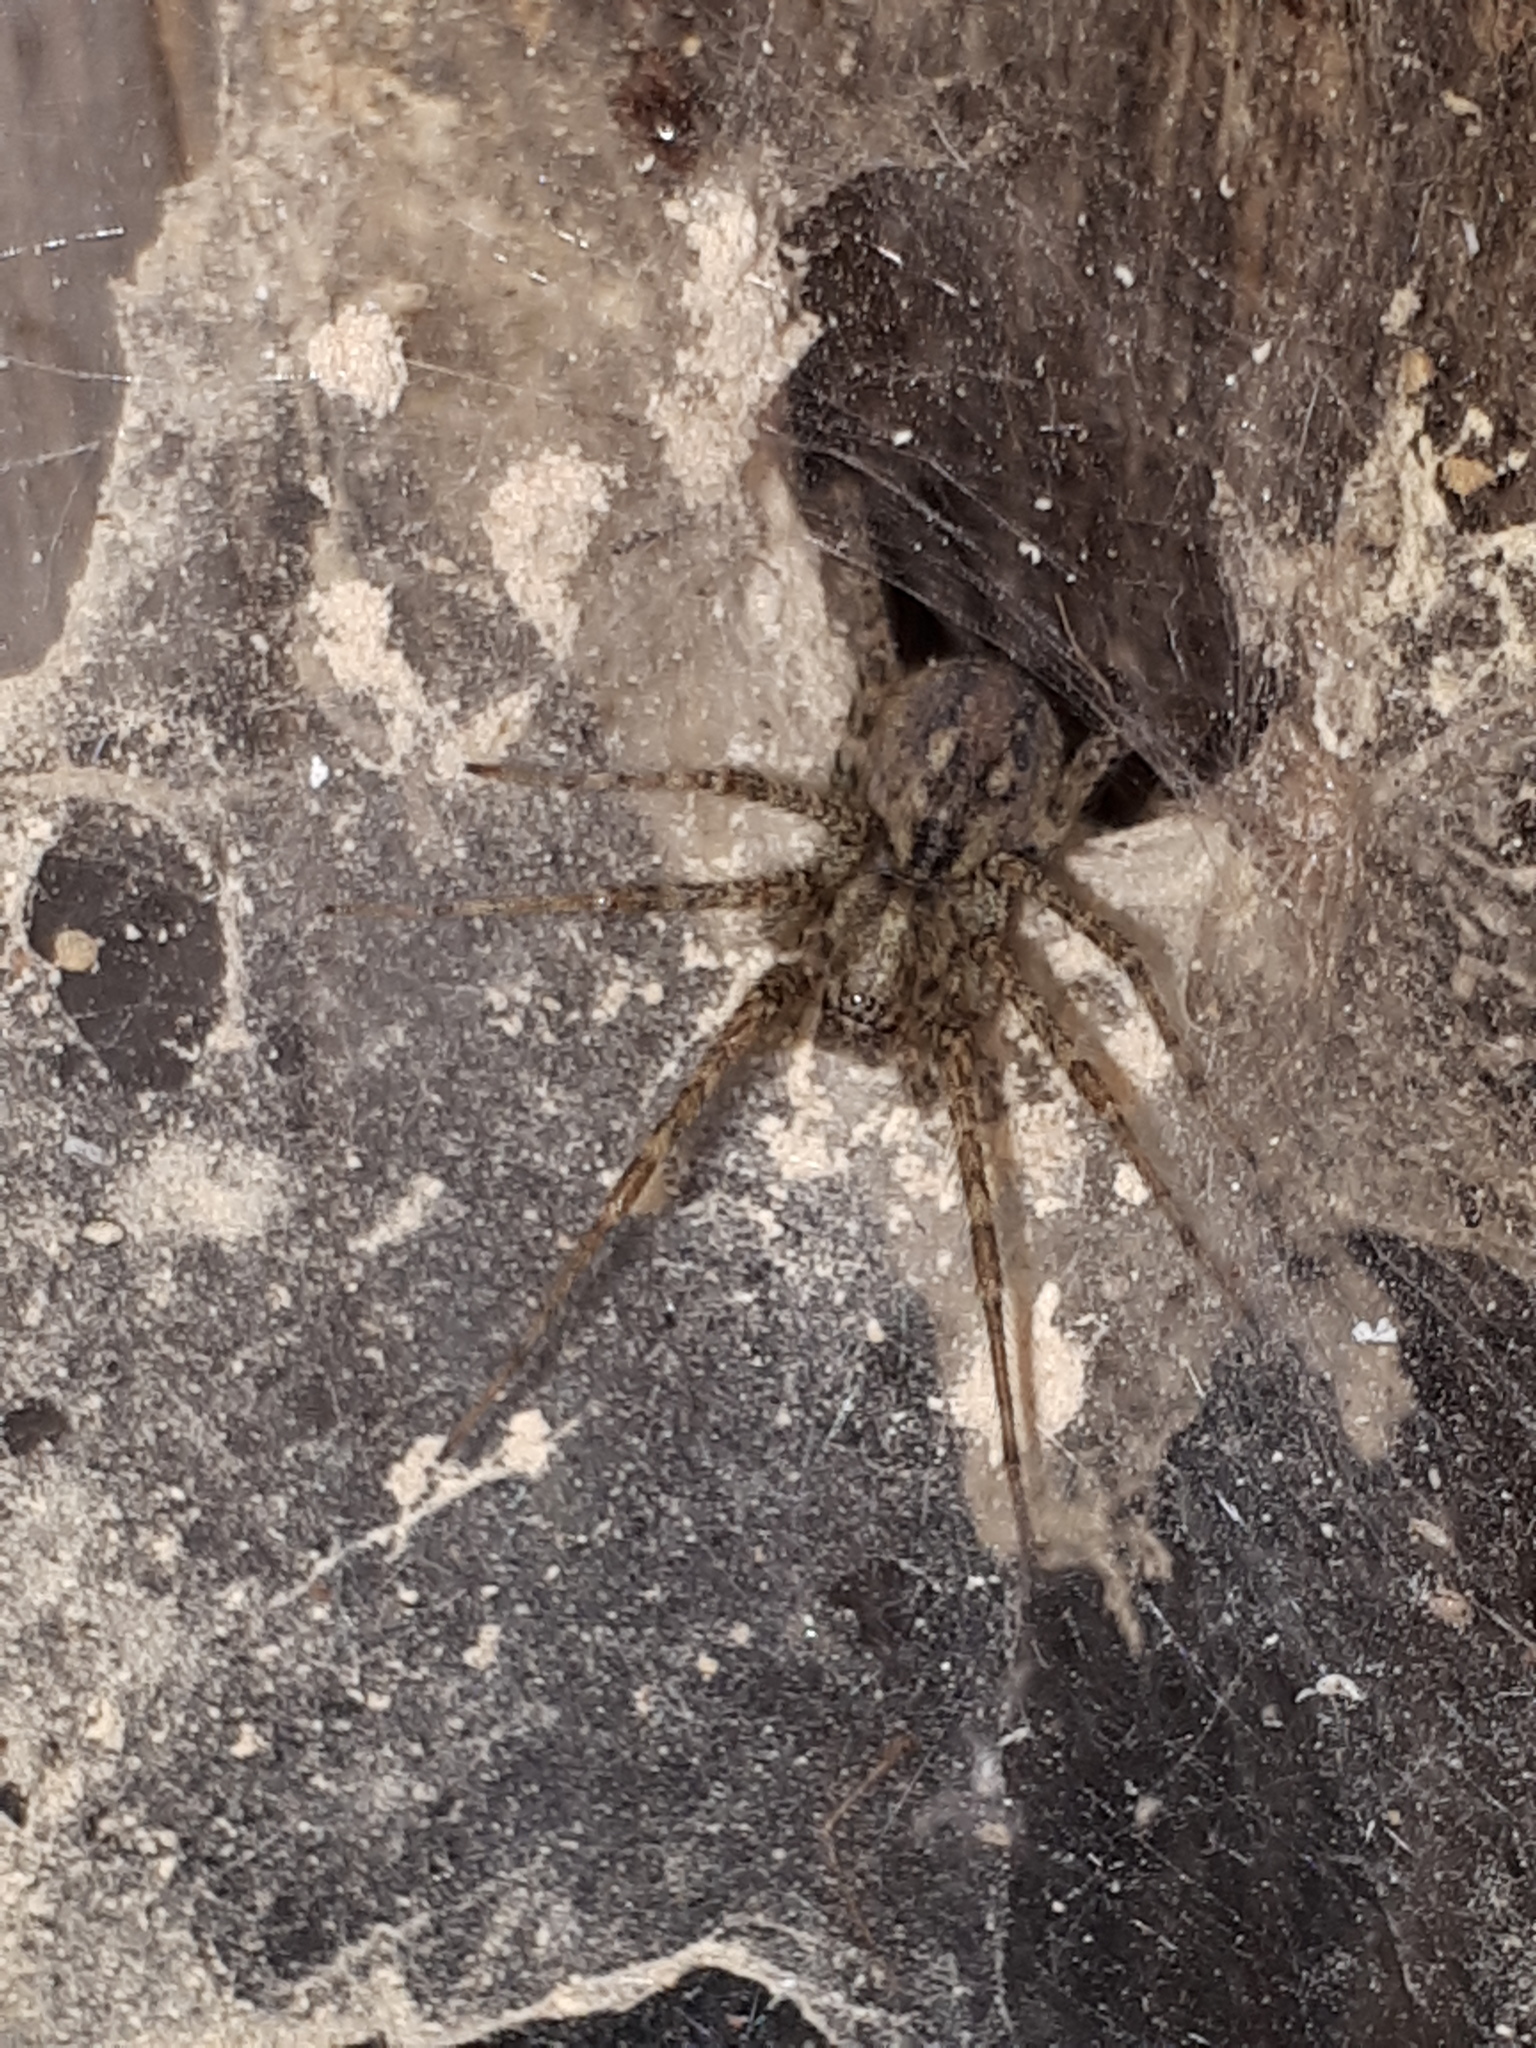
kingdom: Animalia
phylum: Arthropoda
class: Arachnida
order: Araneae
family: Agelenidae
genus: Tegenaria
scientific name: Tegenaria ferruginea
